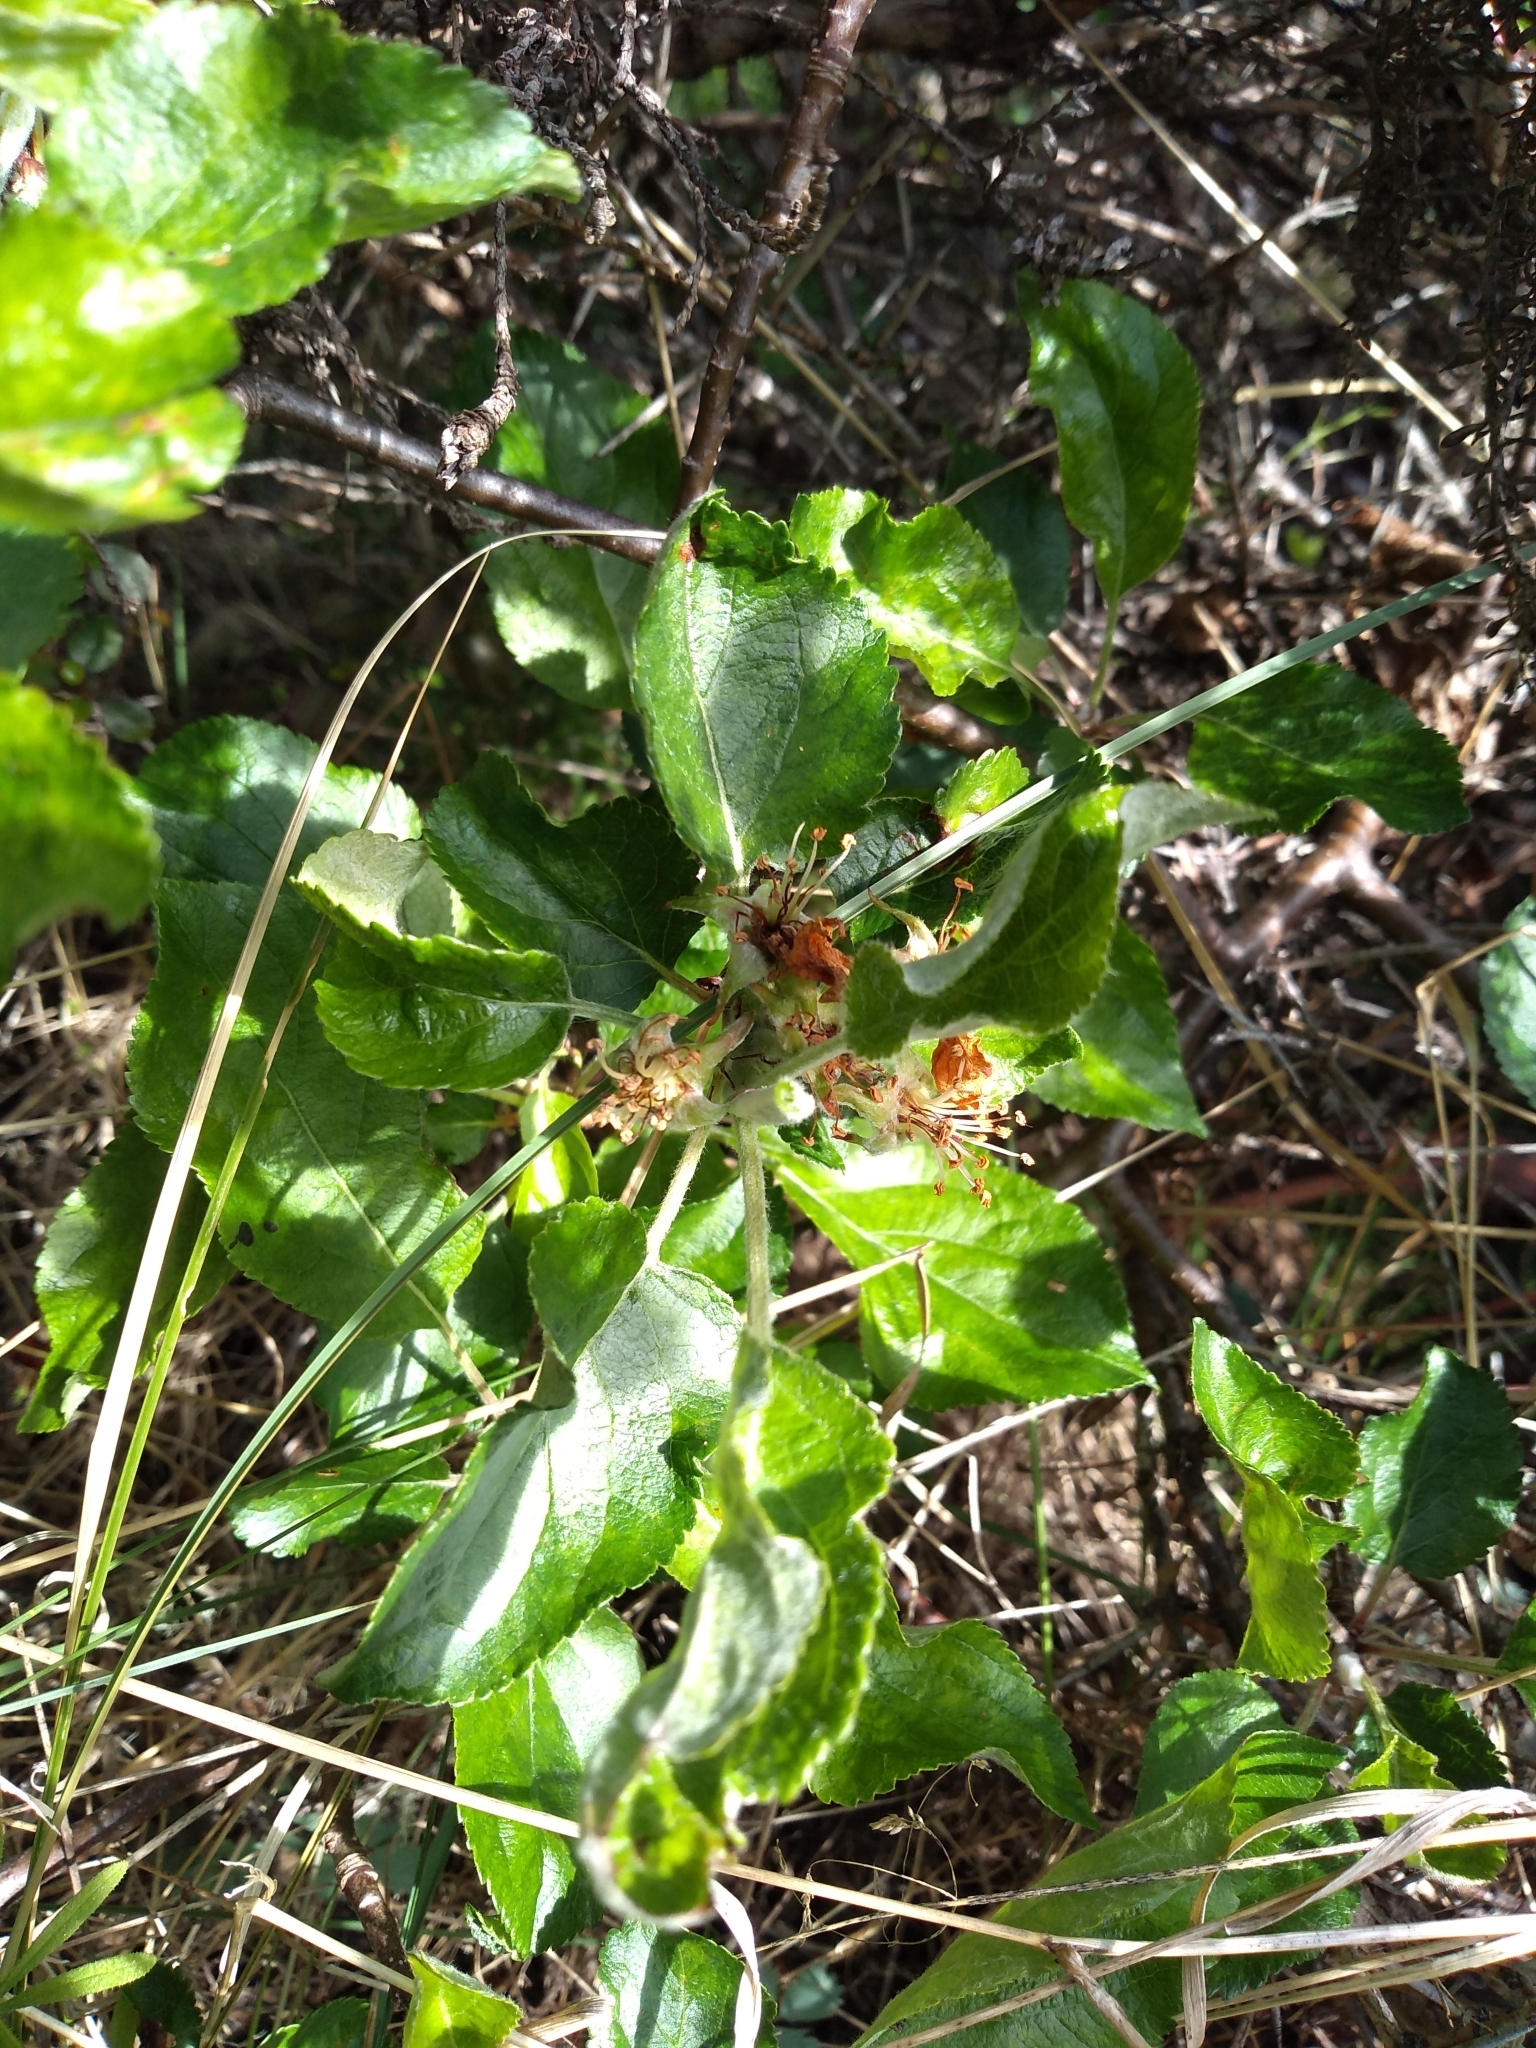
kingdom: Plantae
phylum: Tracheophyta
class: Magnoliopsida
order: Rosales
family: Rosaceae
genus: Malus
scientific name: Malus domestica
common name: Apple
